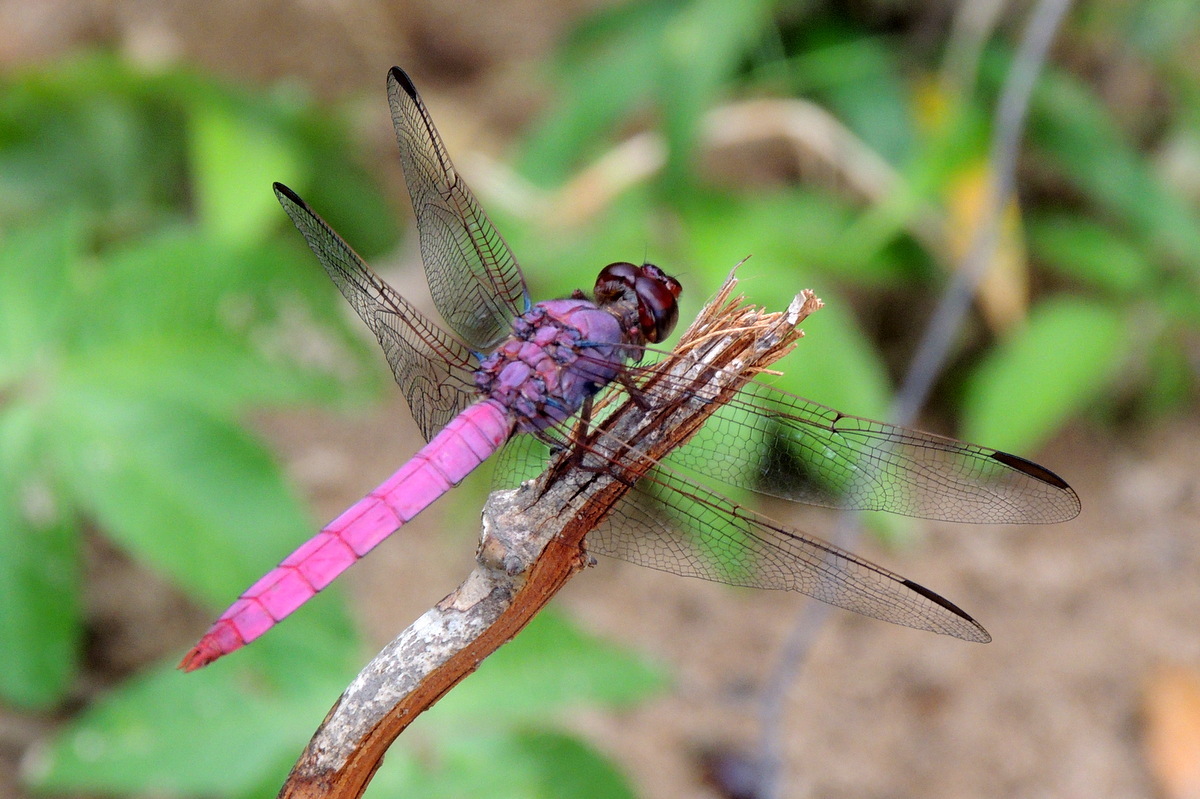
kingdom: Animalia
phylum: Arthropoda
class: Insecta
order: Odonata
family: Libellulidae
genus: Orthemis
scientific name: Orthemis ferruginea
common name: Roseate skimmer
